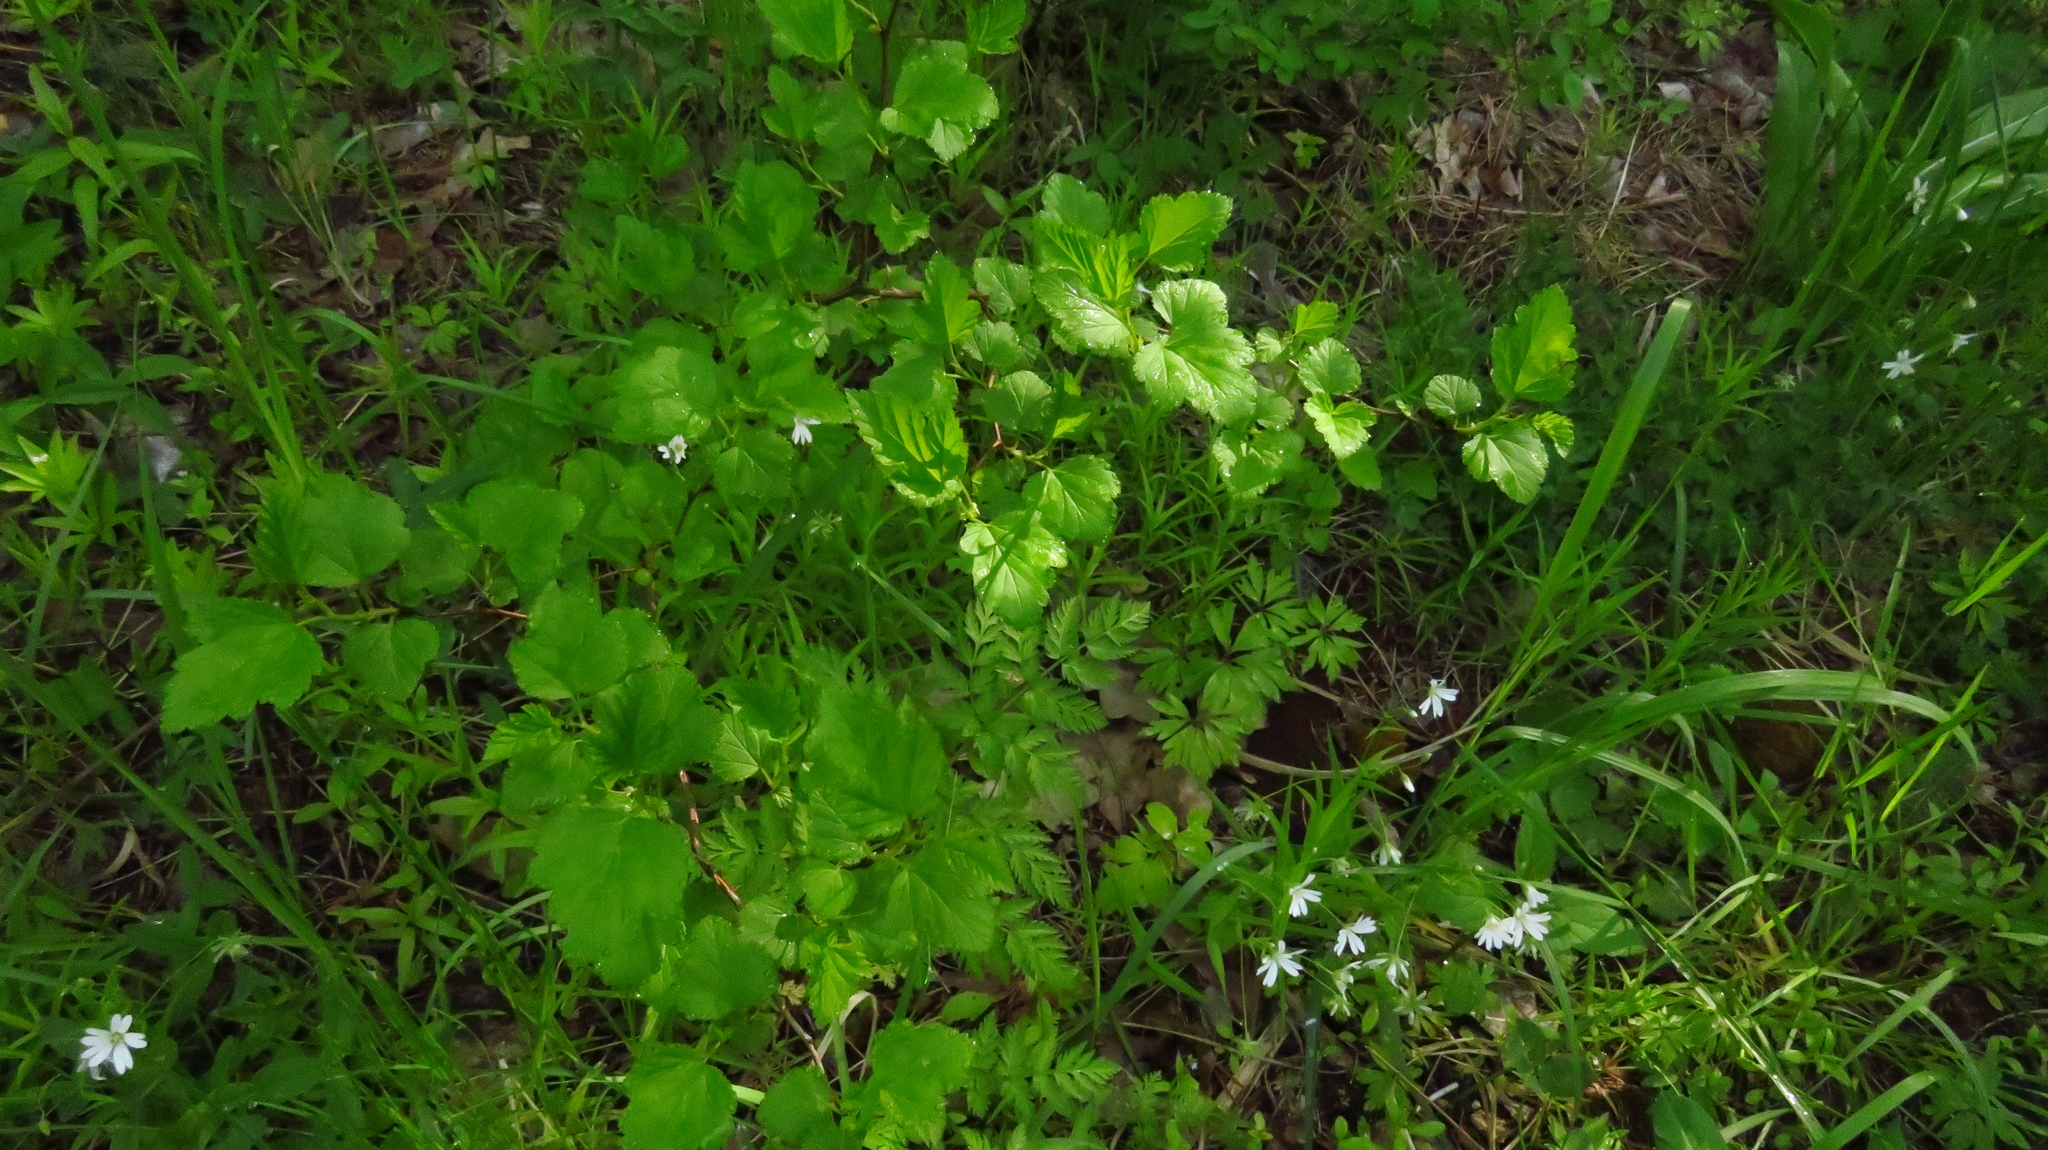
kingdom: Plantae
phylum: Tracheophyta
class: Magnoliopsida
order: Rosales
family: Rosaceae
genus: Physocarpus
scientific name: Physocarpus opulifolius
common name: Ninebark
